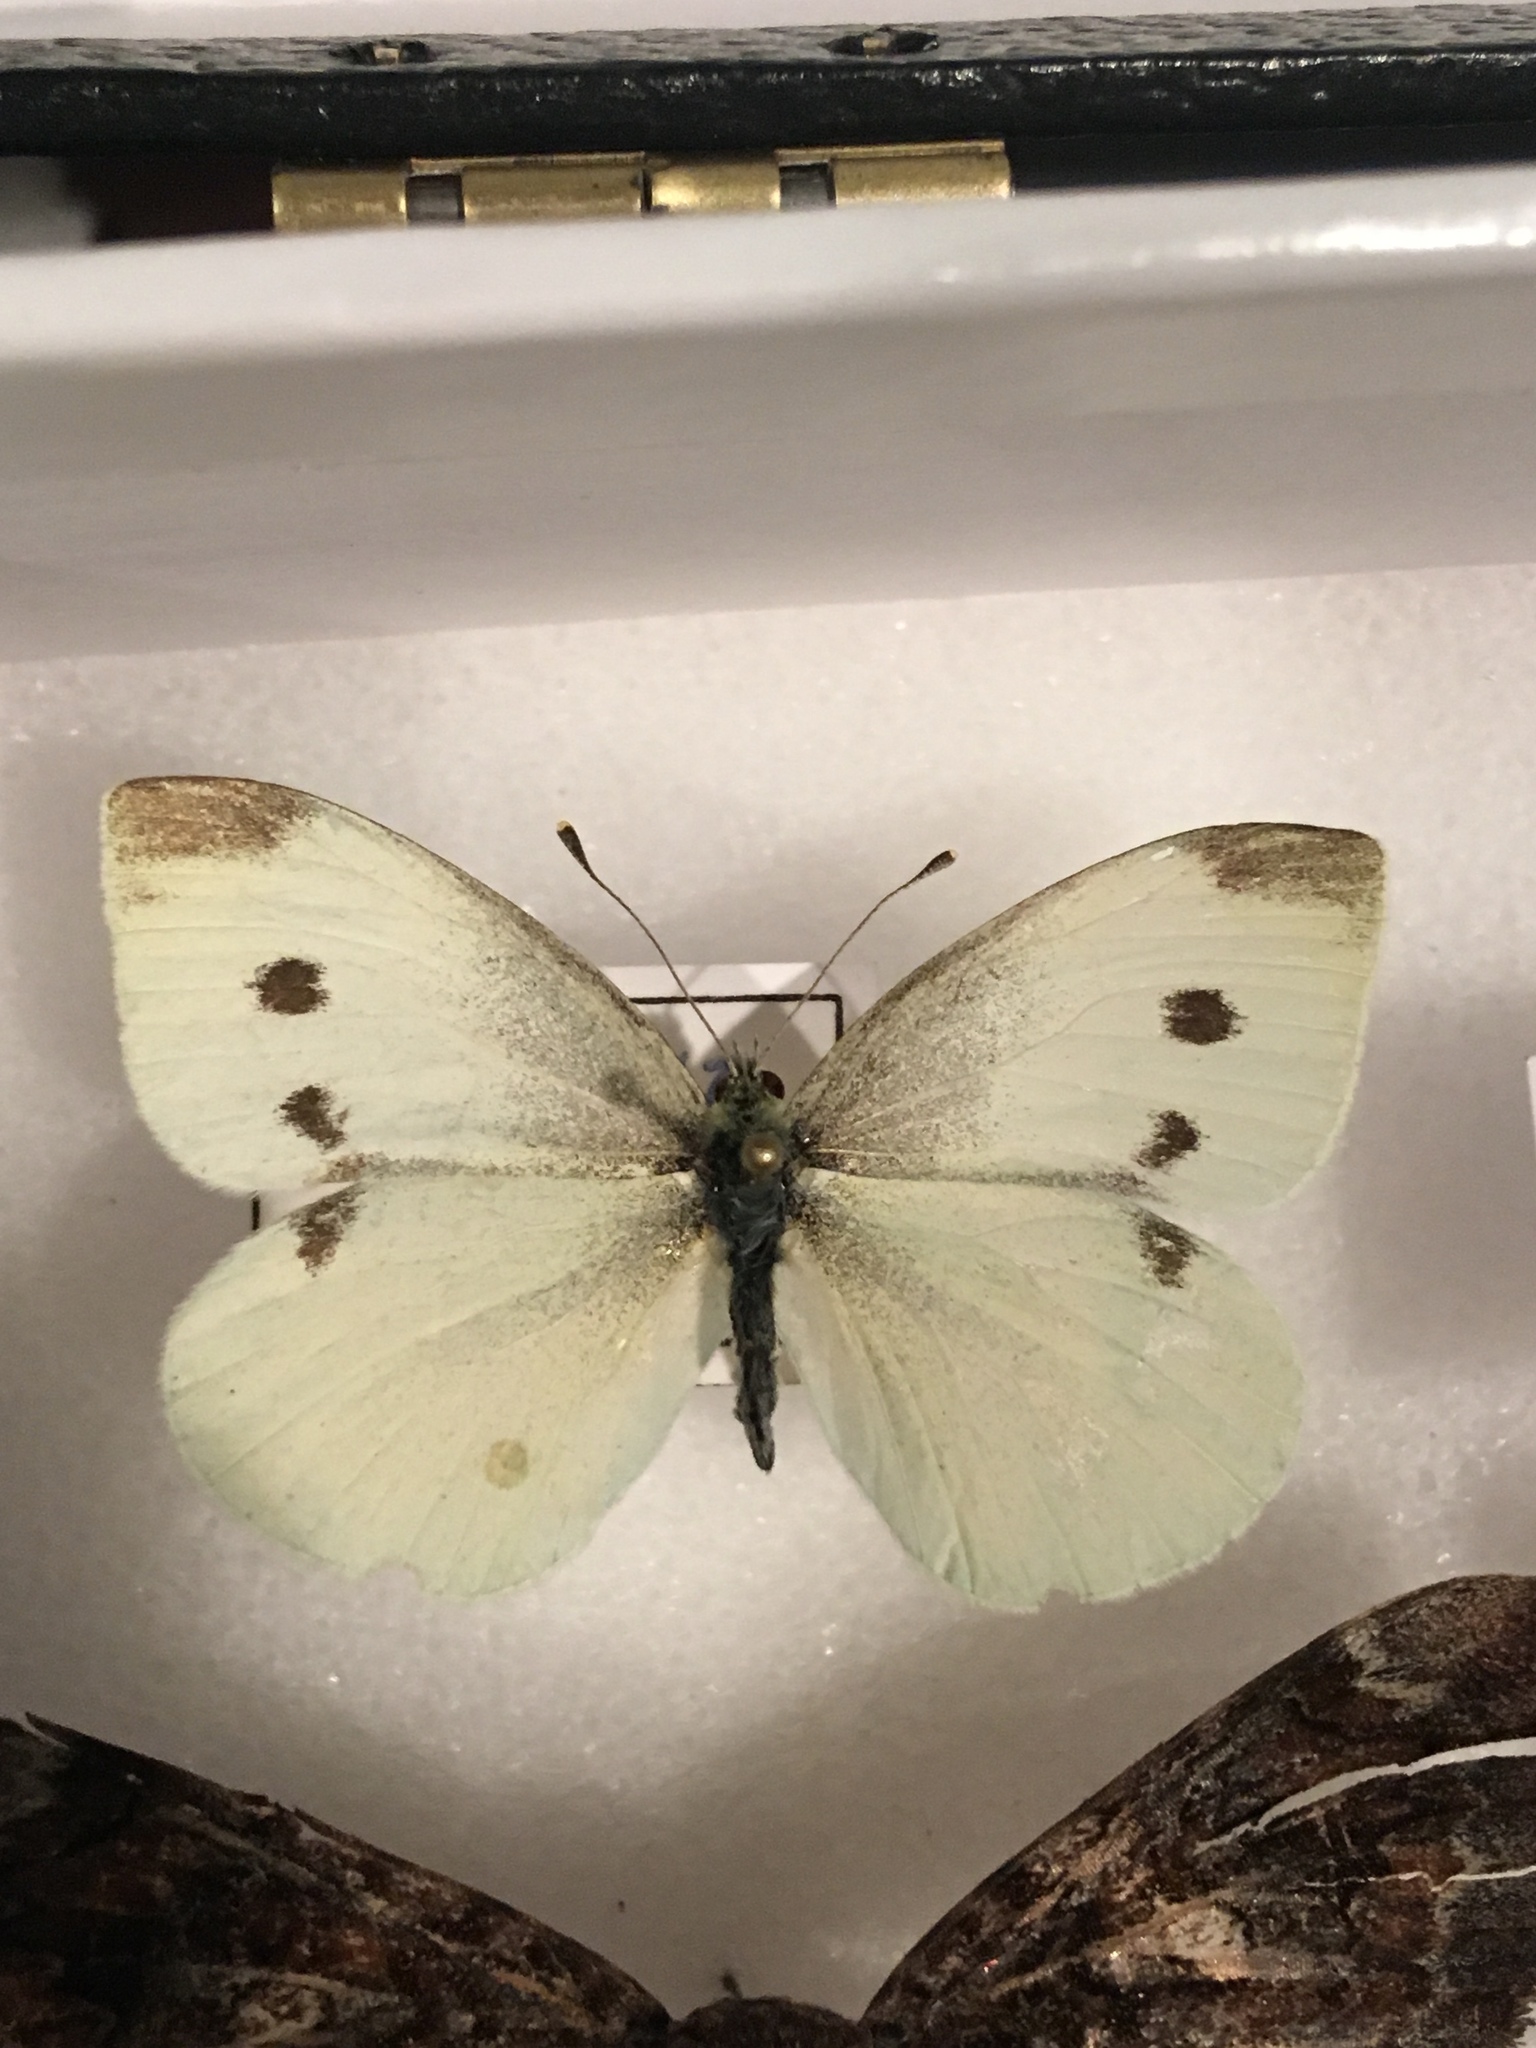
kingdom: Animalia
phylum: Arthropoda
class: Insecta
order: Lepidoptera
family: Pieridae
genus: Pieris
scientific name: Pieris rapae
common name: Small white
